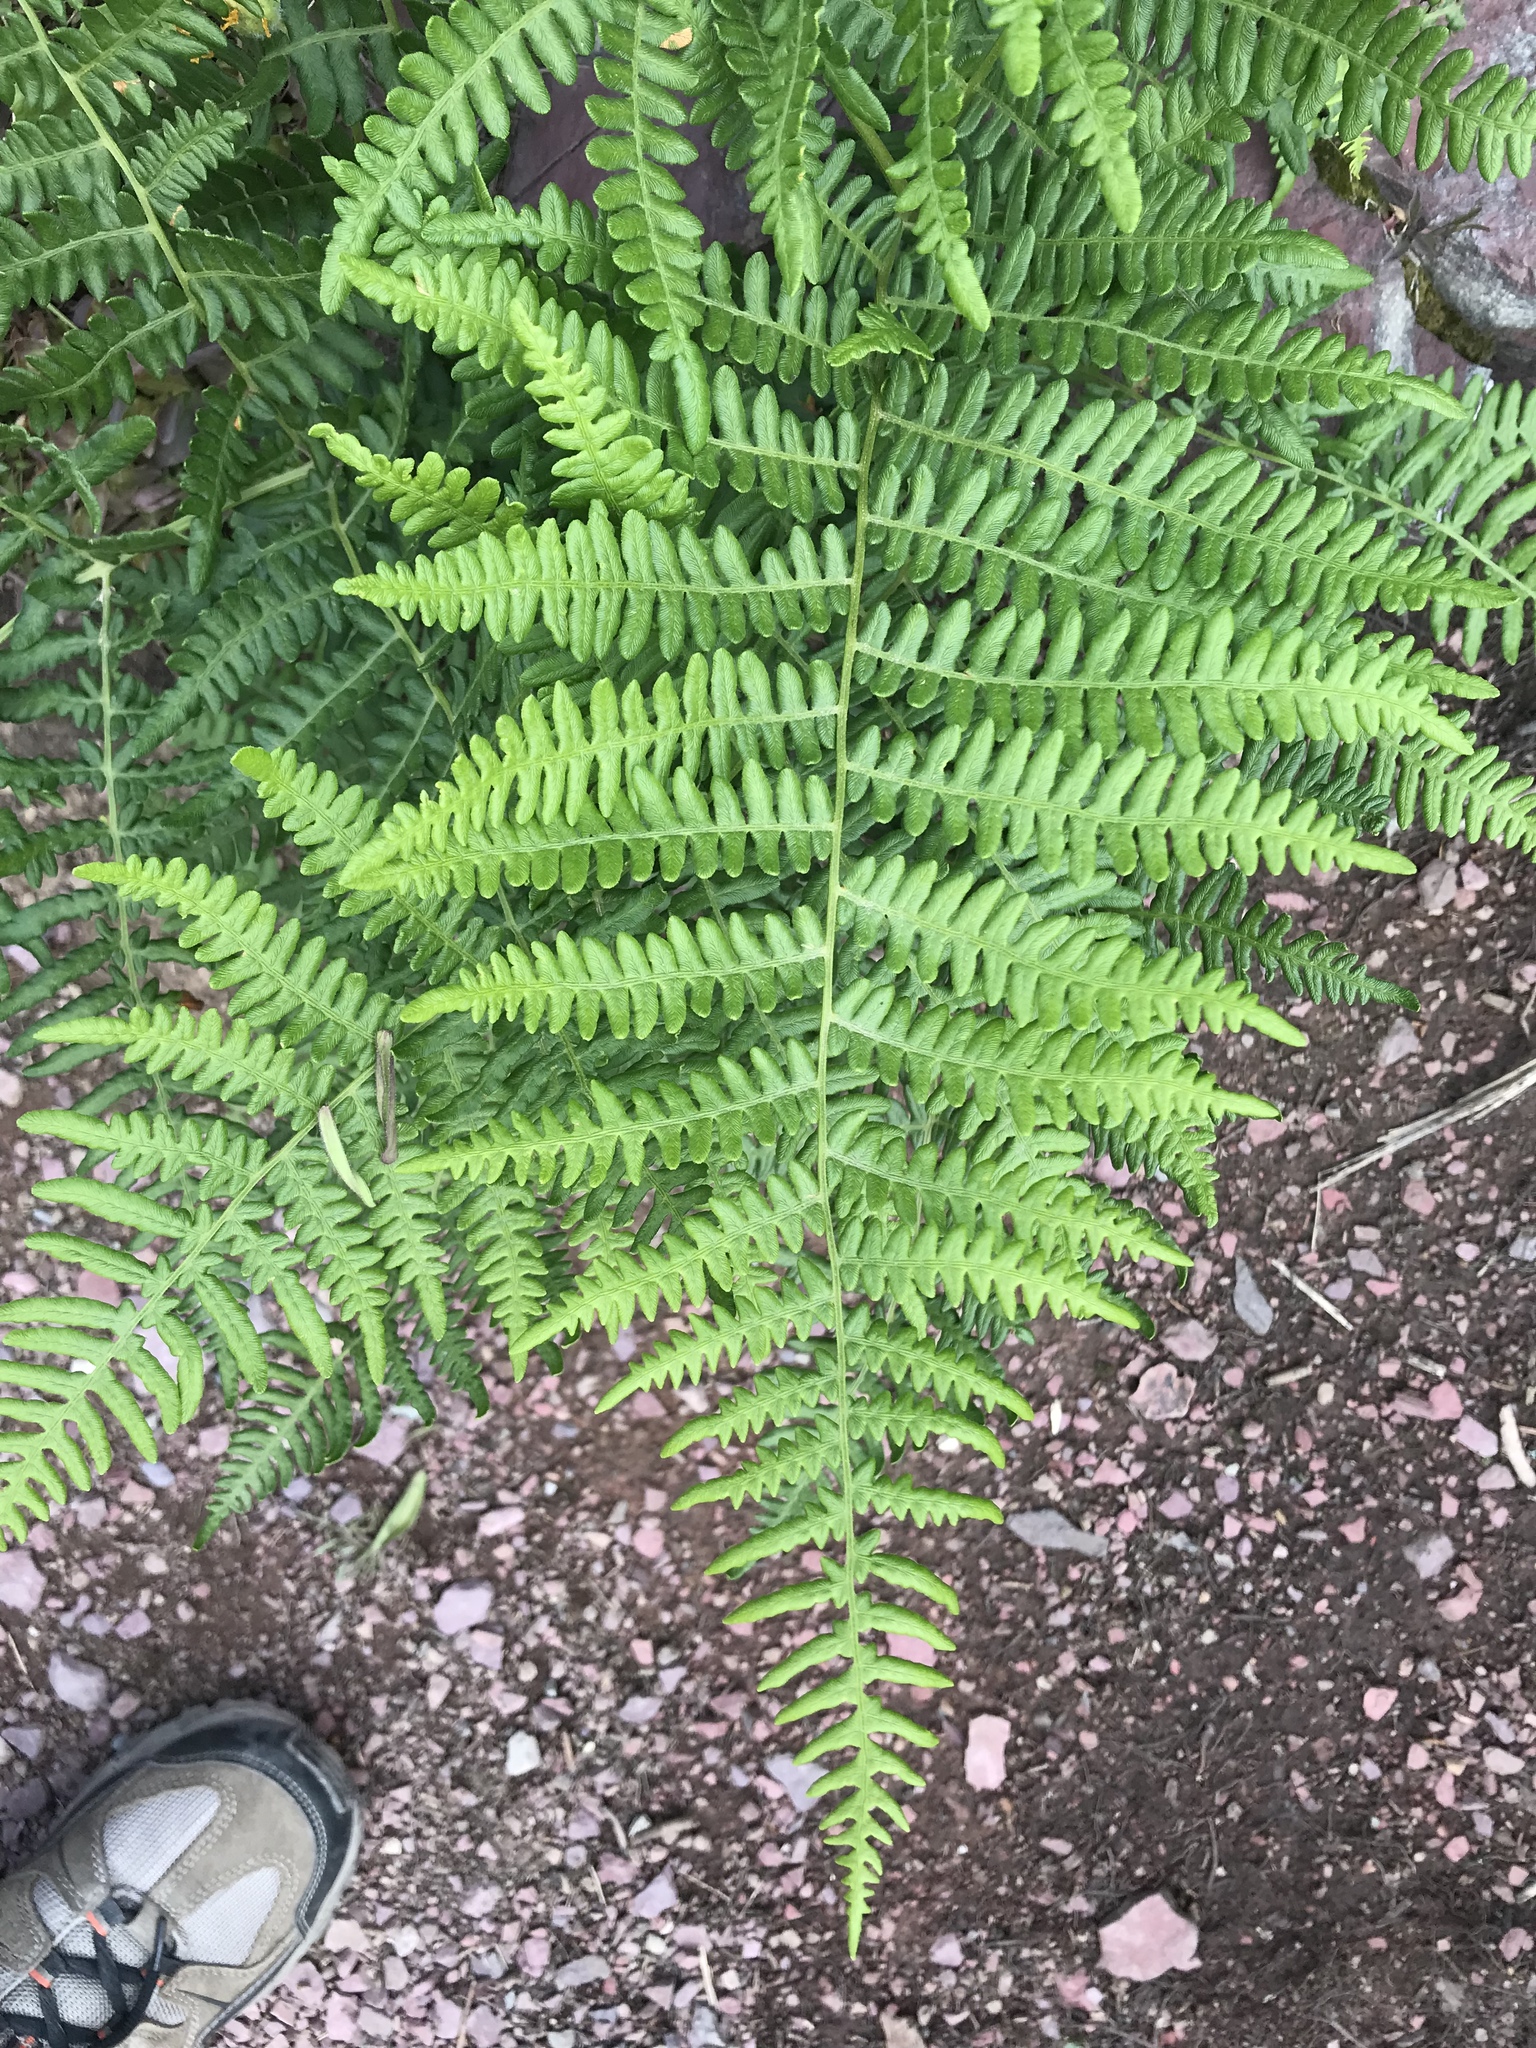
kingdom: Plantae
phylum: Tracheophyta
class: Polypodiopsida
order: Polypodiales
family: Dennstaedtiaceae
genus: Pteridium
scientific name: Pteridium aquilinum
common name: Bracken
